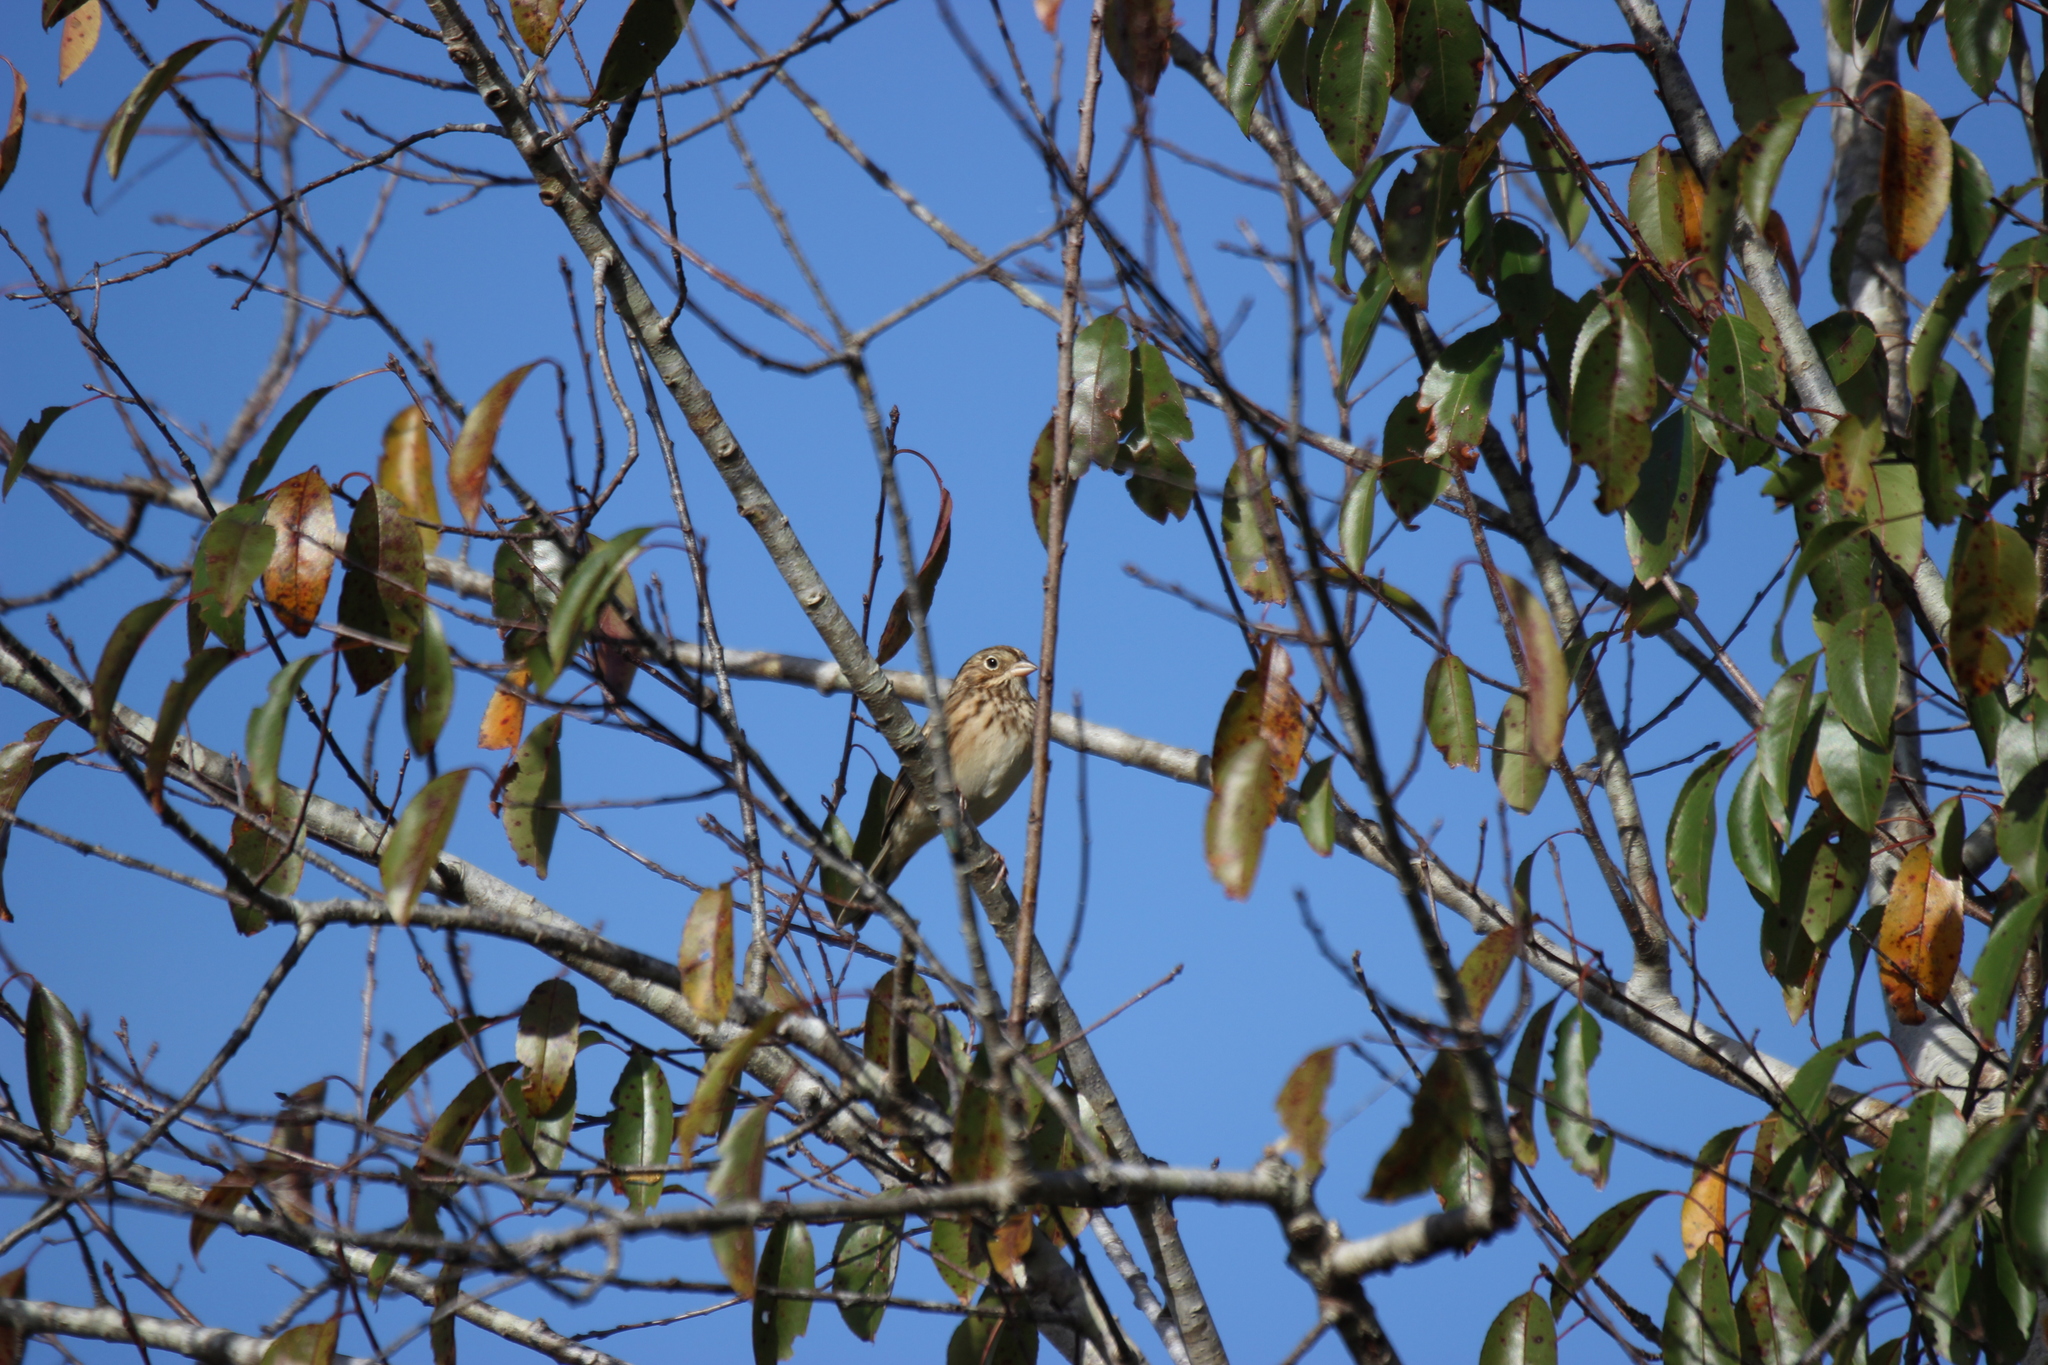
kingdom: Animalia
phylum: Chordata
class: Aves
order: Passeriformes
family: Passerellidae
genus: Pooecetes
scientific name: Pooecetes gramineus
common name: Vesper sparrow
